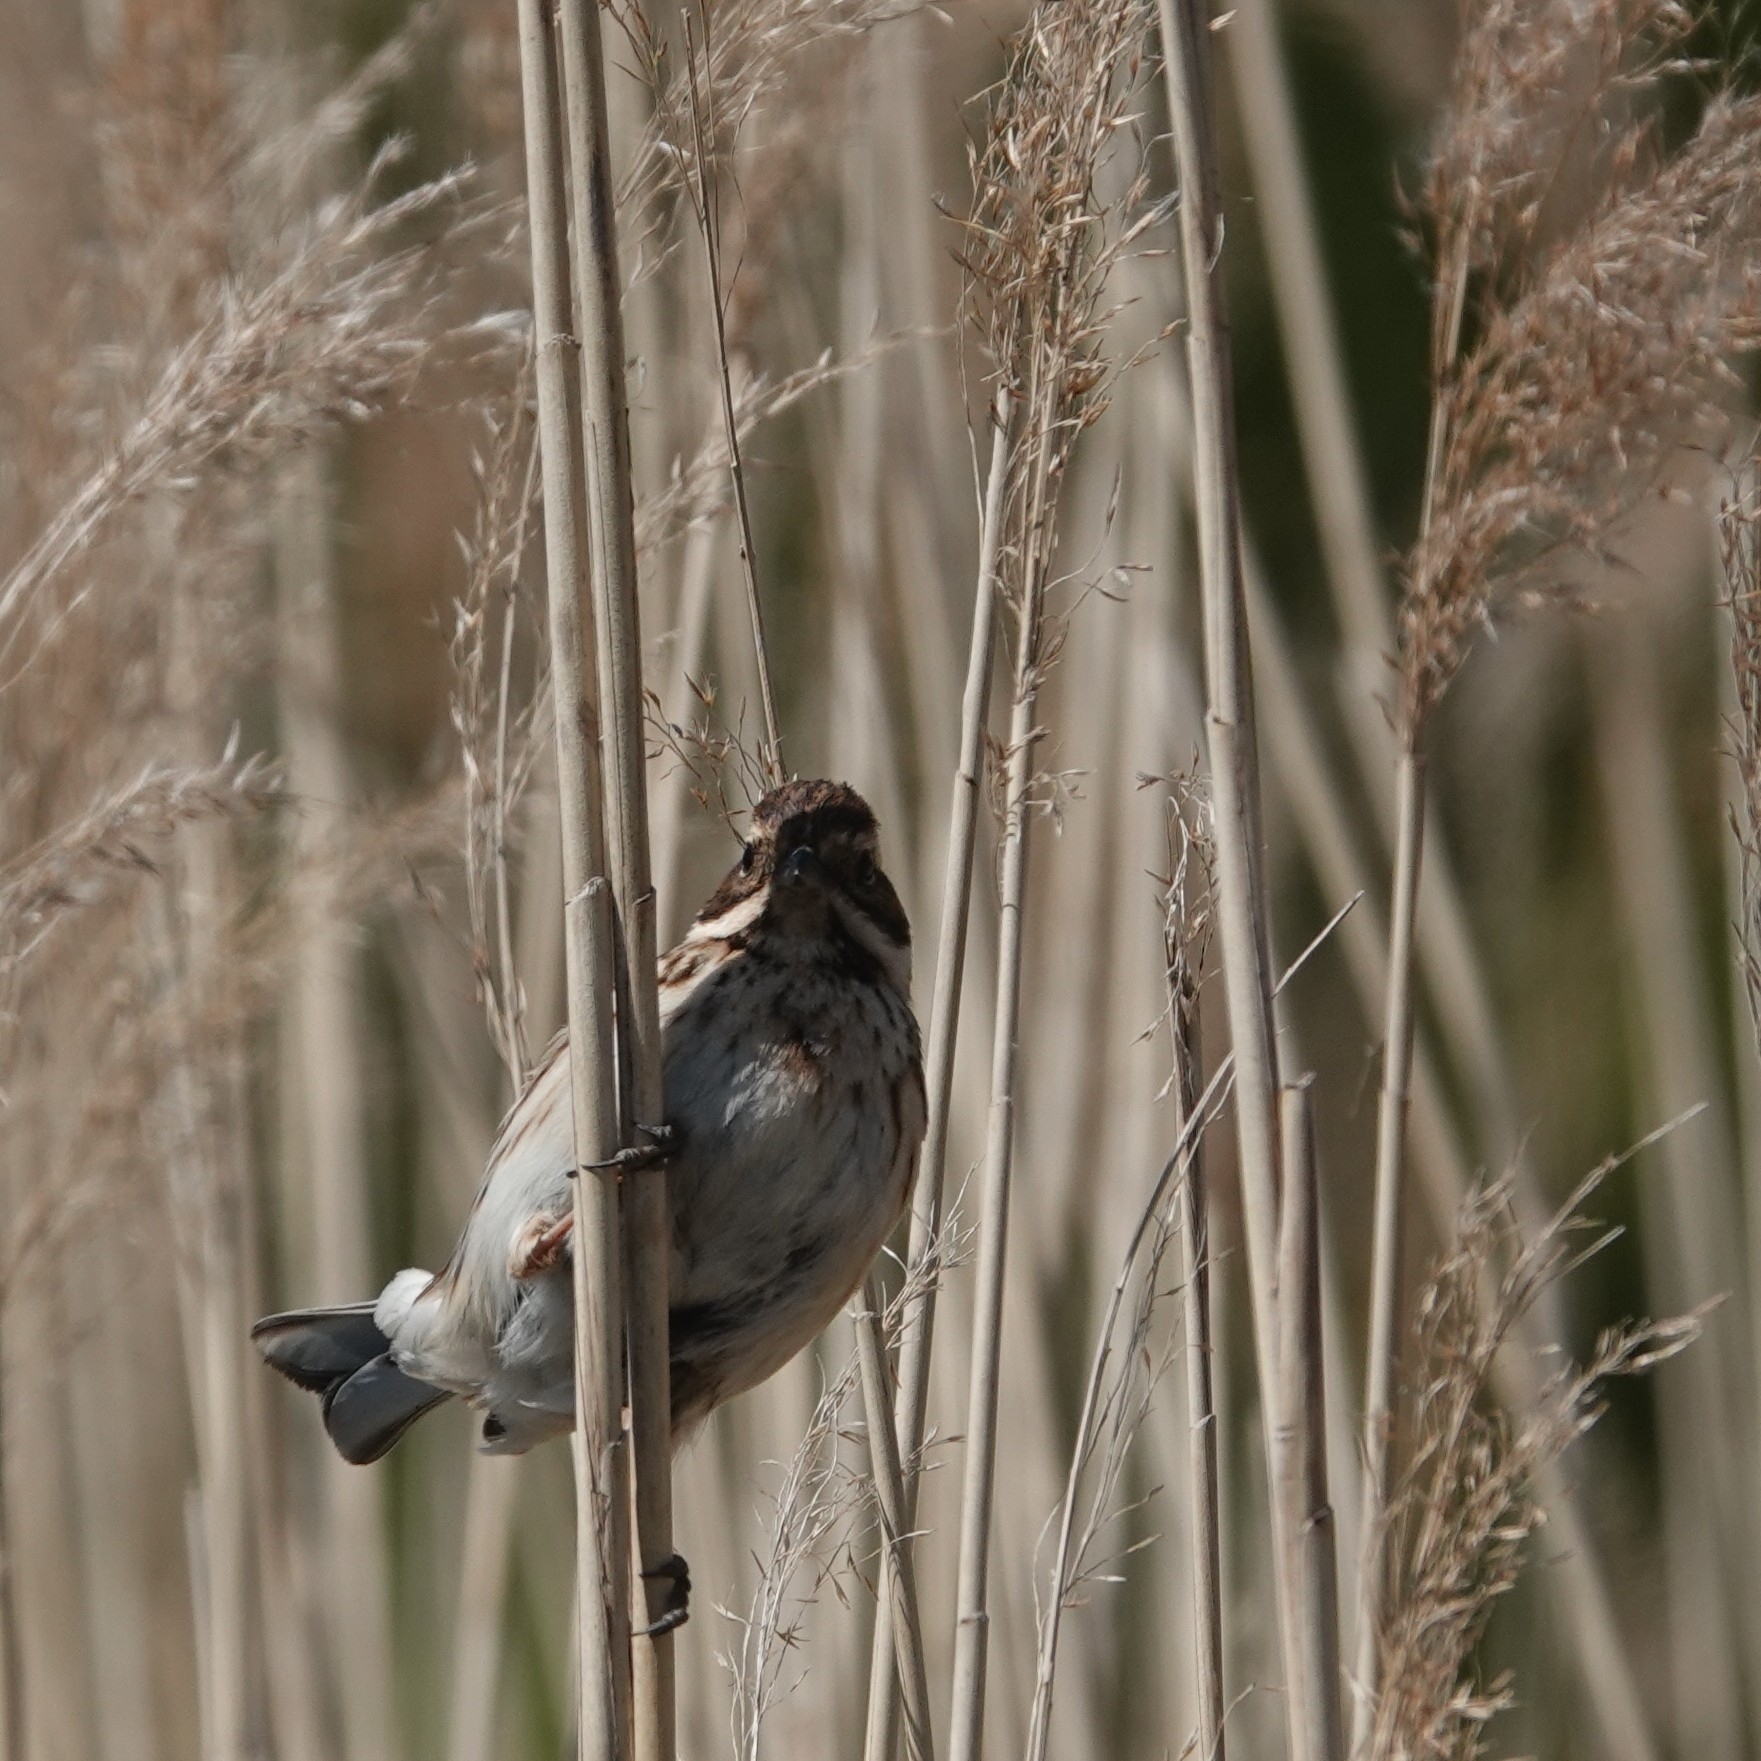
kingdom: Animalia
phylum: Chordata
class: Aves
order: Passeriformes
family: Emberizidae
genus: Emberiza
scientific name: Emberiza schoeniclus
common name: Reed bunting
